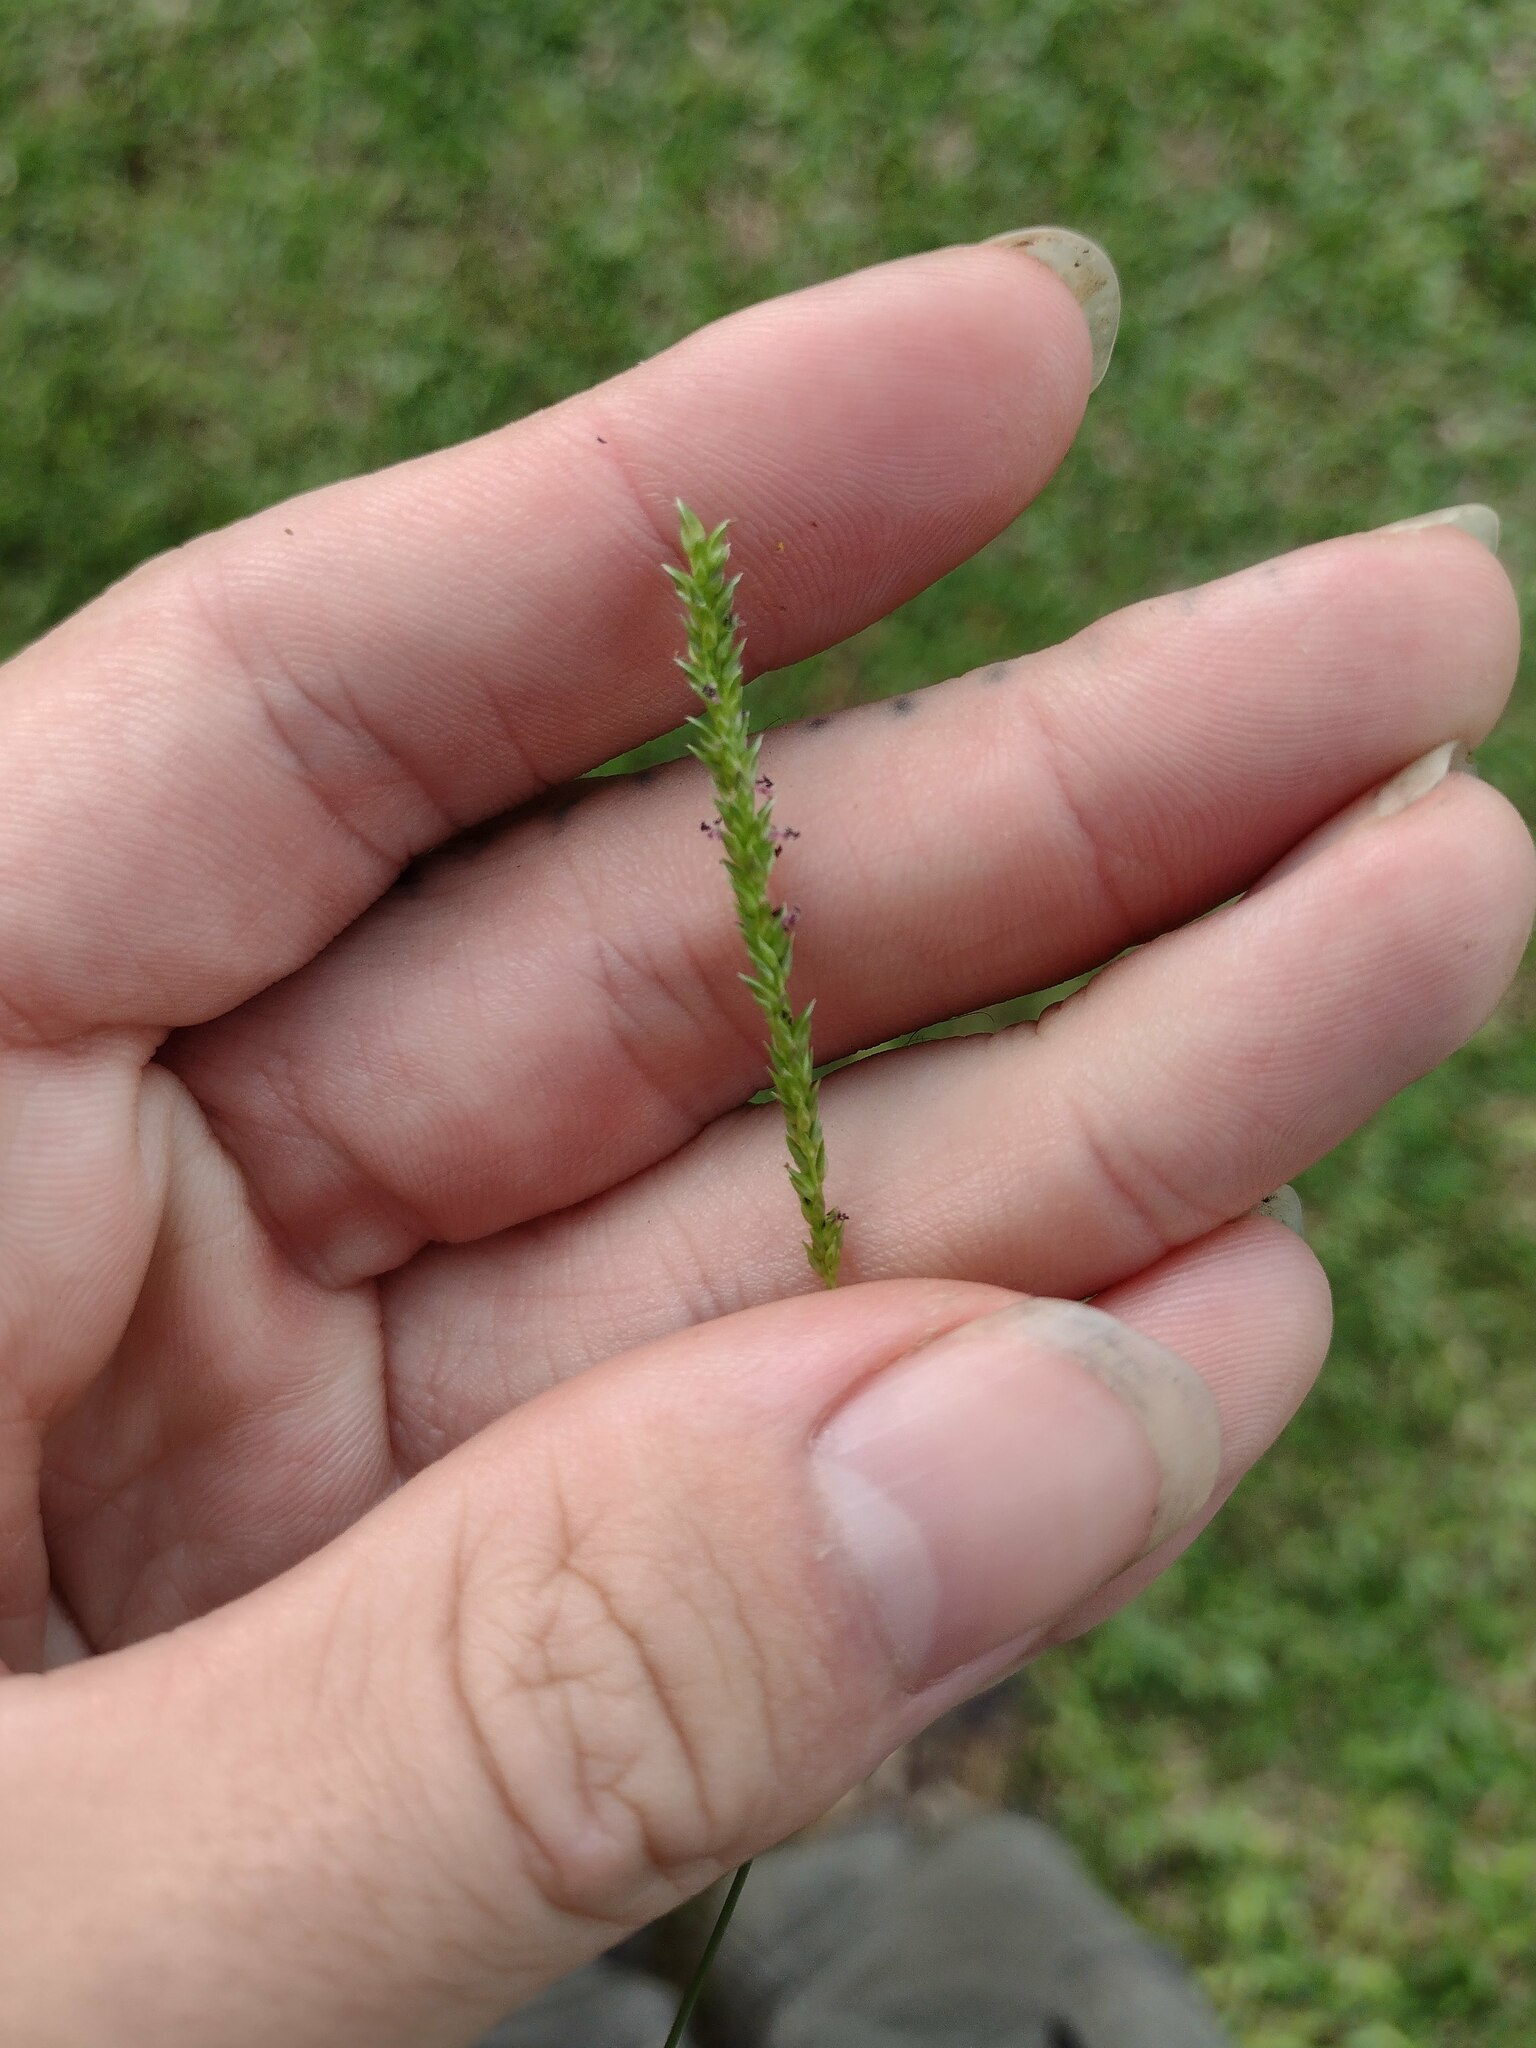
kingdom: Plantae
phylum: Tracheophyta
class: Liliopsida
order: Poales
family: Poaceae
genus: Sacciolepis
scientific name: Sacciolepis indica
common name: Glenwoodgrass
